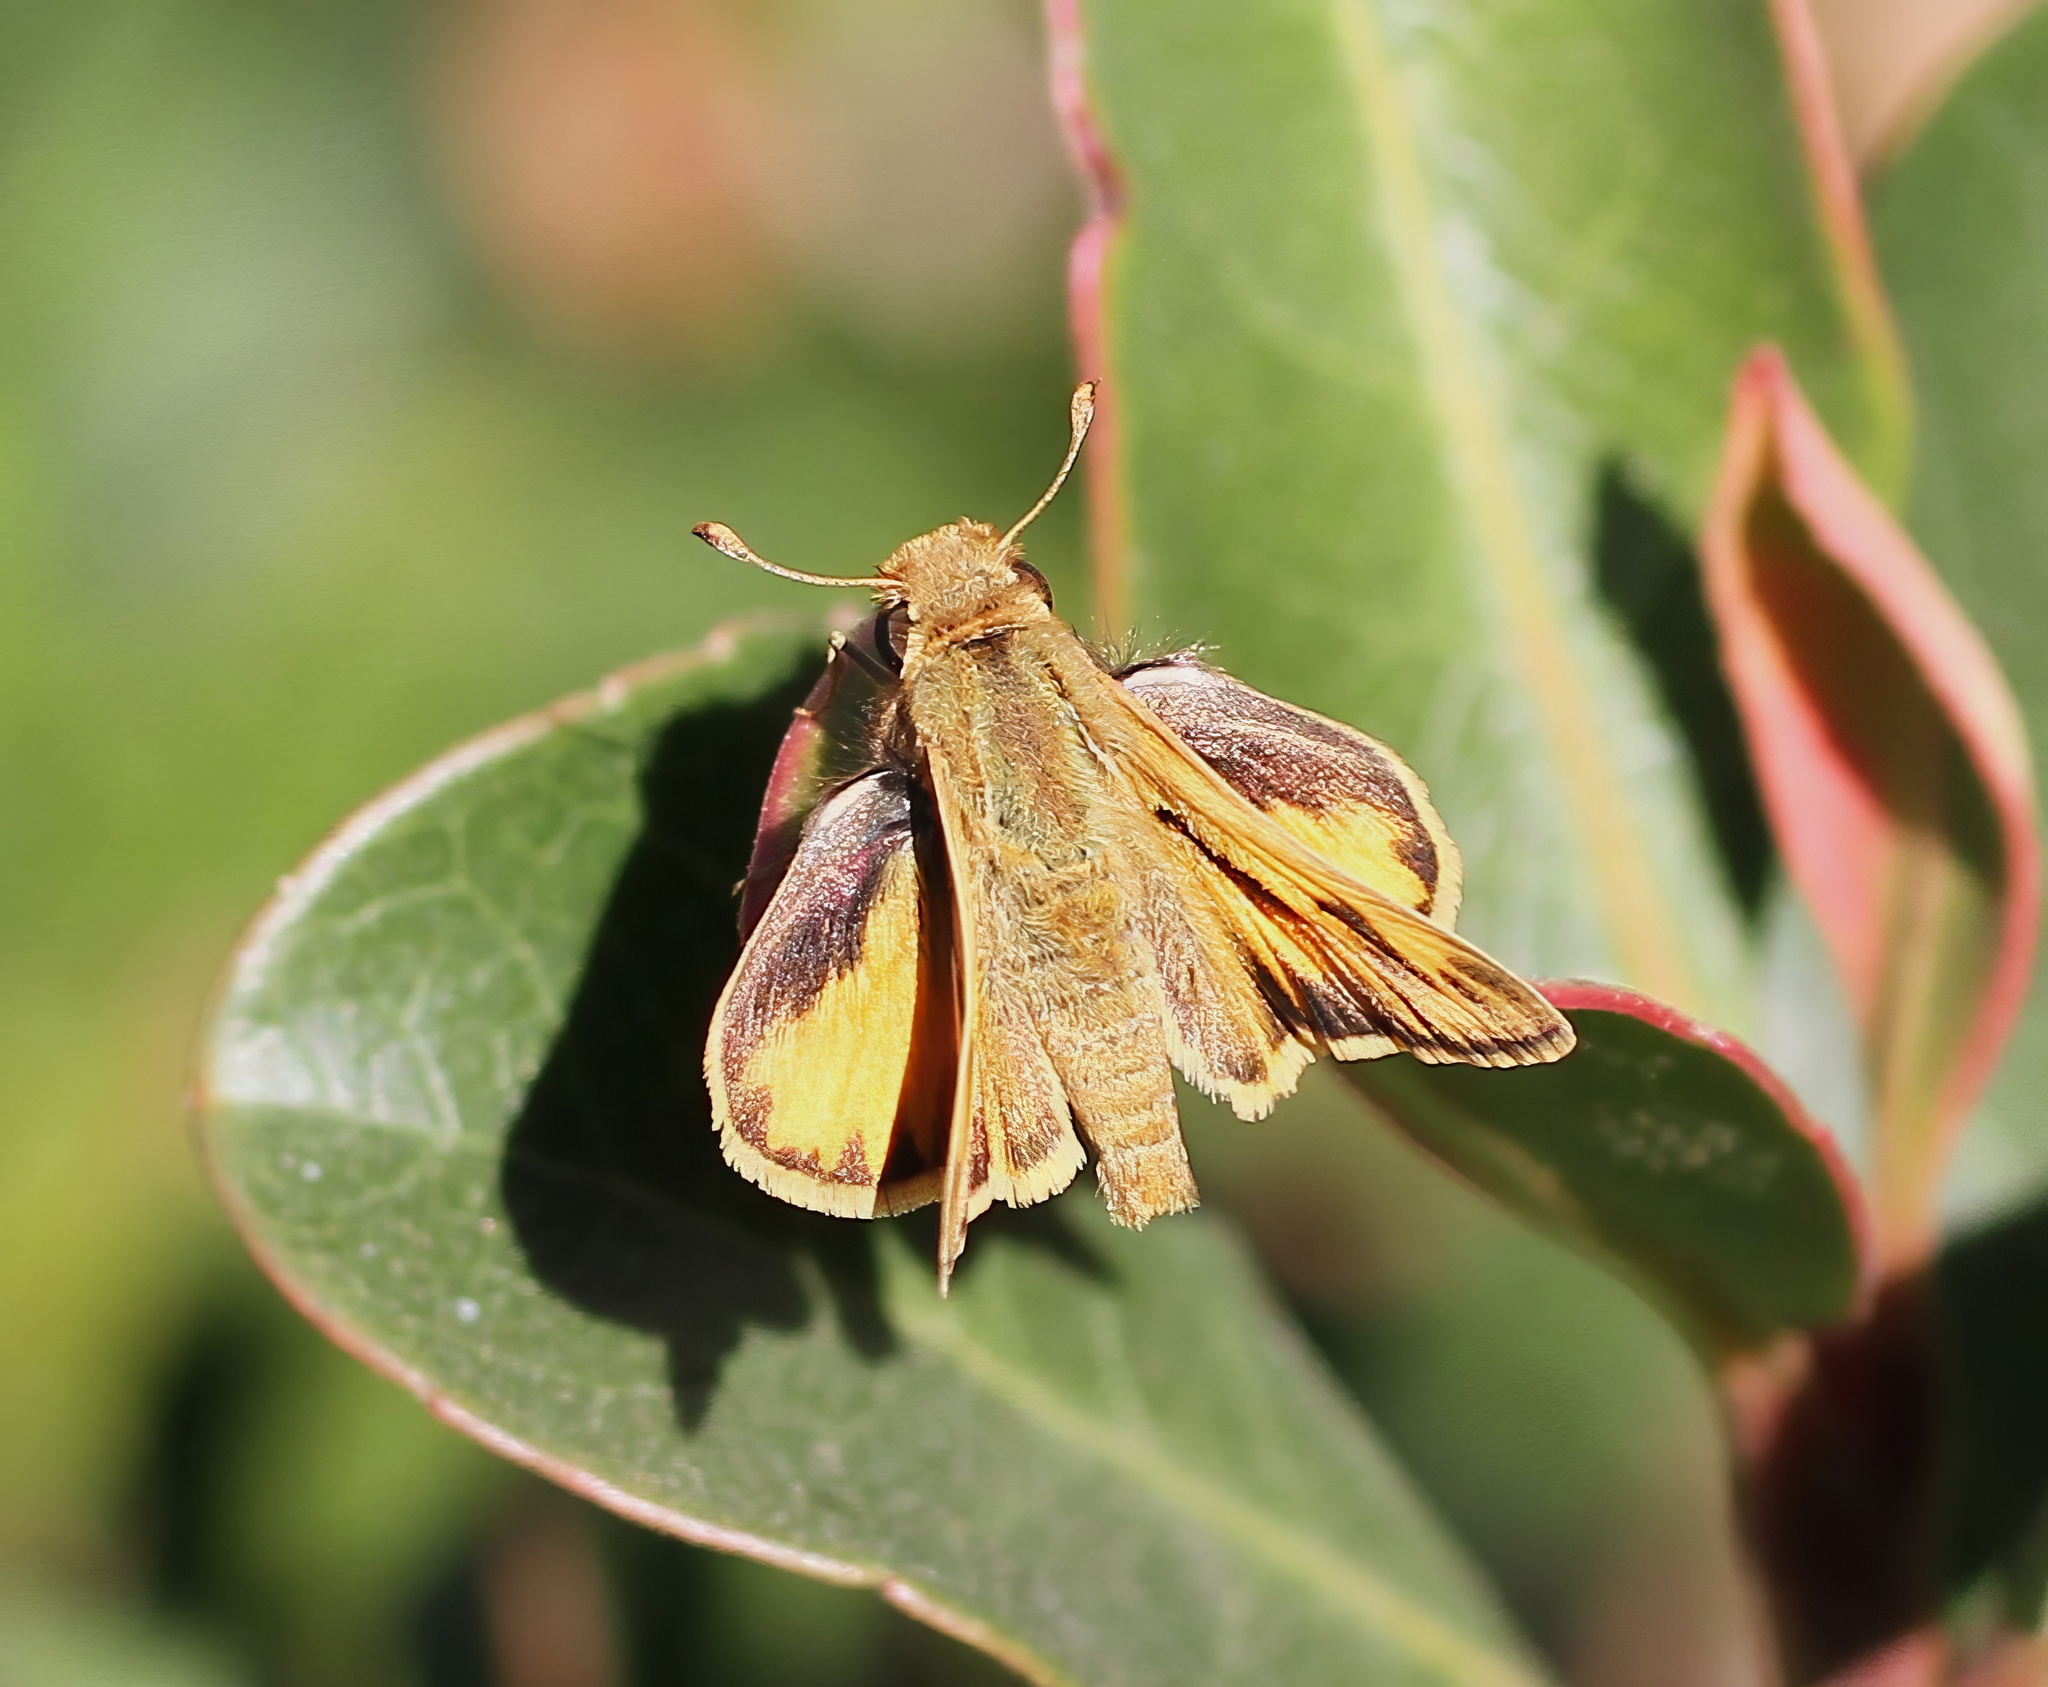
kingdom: Animalia
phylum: Arthropoda
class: Insecta
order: Lepidoptera
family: Hesperiidae
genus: Hylephila
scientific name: Hylephila phyleus
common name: Fiery skipper
